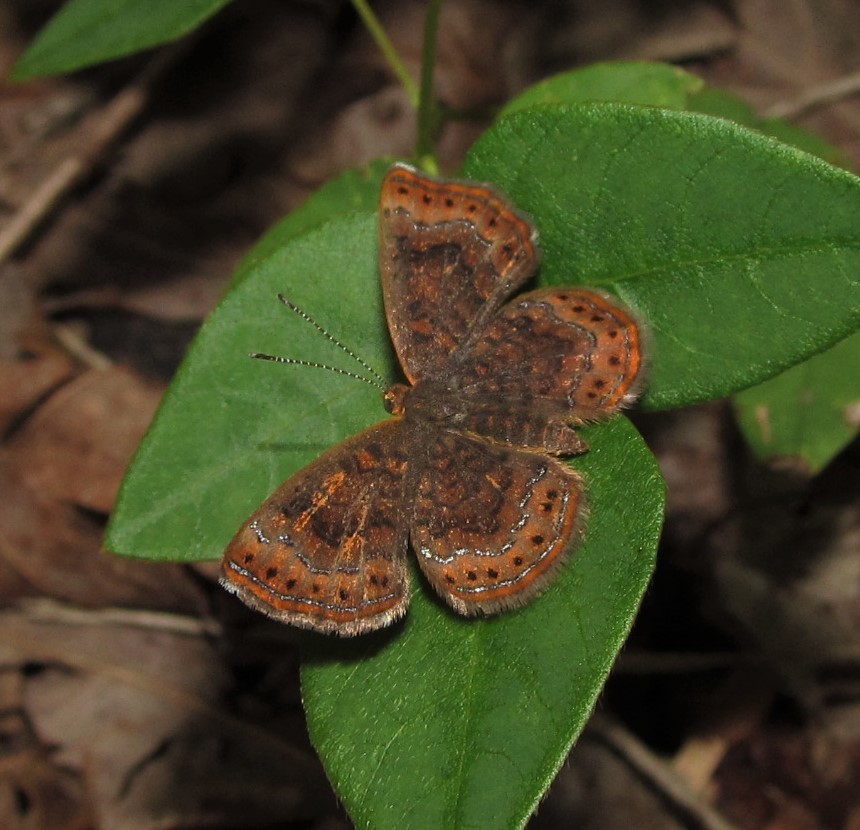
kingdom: Animalia
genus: Calephelis
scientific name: Calephelis borealis
